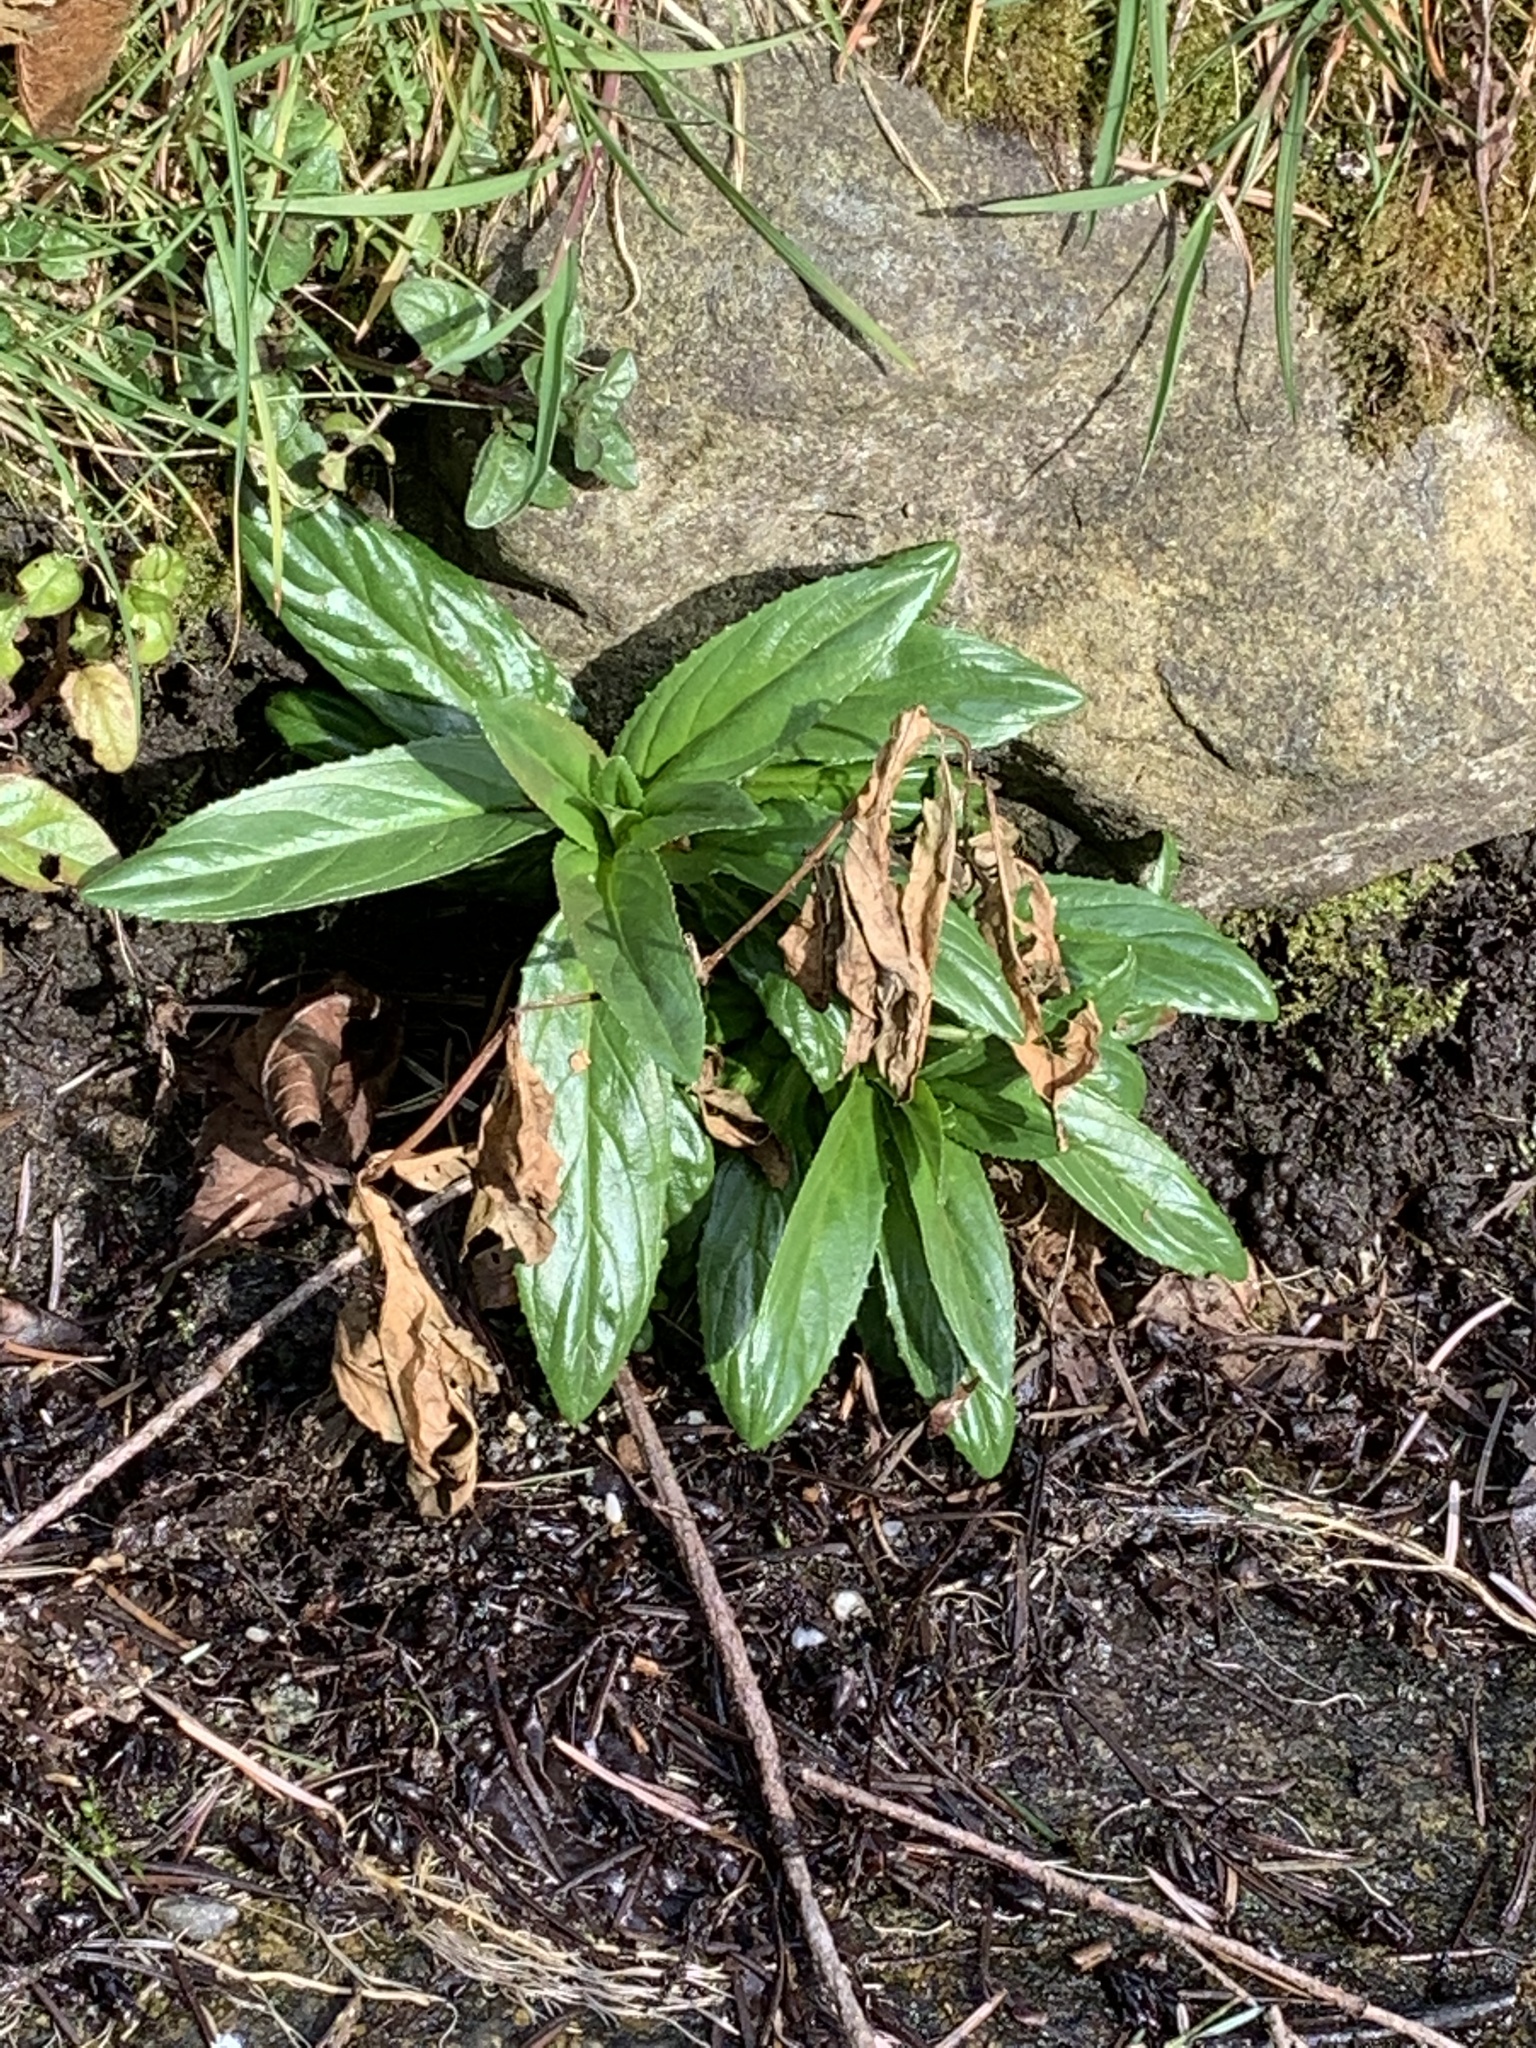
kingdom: Plantae
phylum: Tracheophyta
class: Magnoliopsida
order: Myrtales
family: Onagraceae
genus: Epilobium
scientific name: Epilobium ciliatum
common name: American willowherb
